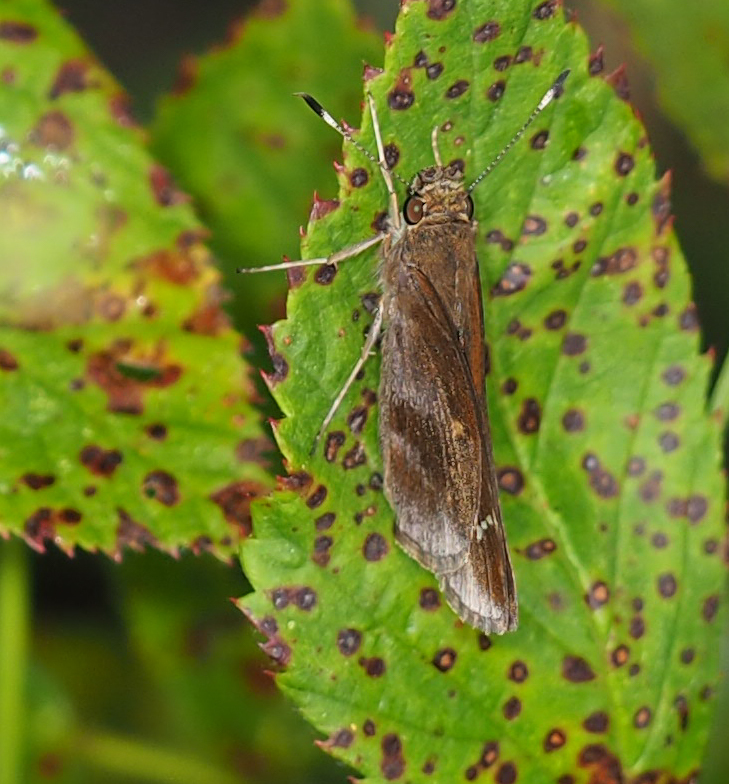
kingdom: Animalia
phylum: Arthropoda
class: Insecta
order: Lepidoptera
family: Hesperiidae
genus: Lerema
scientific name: Lerema accius
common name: Clouded skipper
